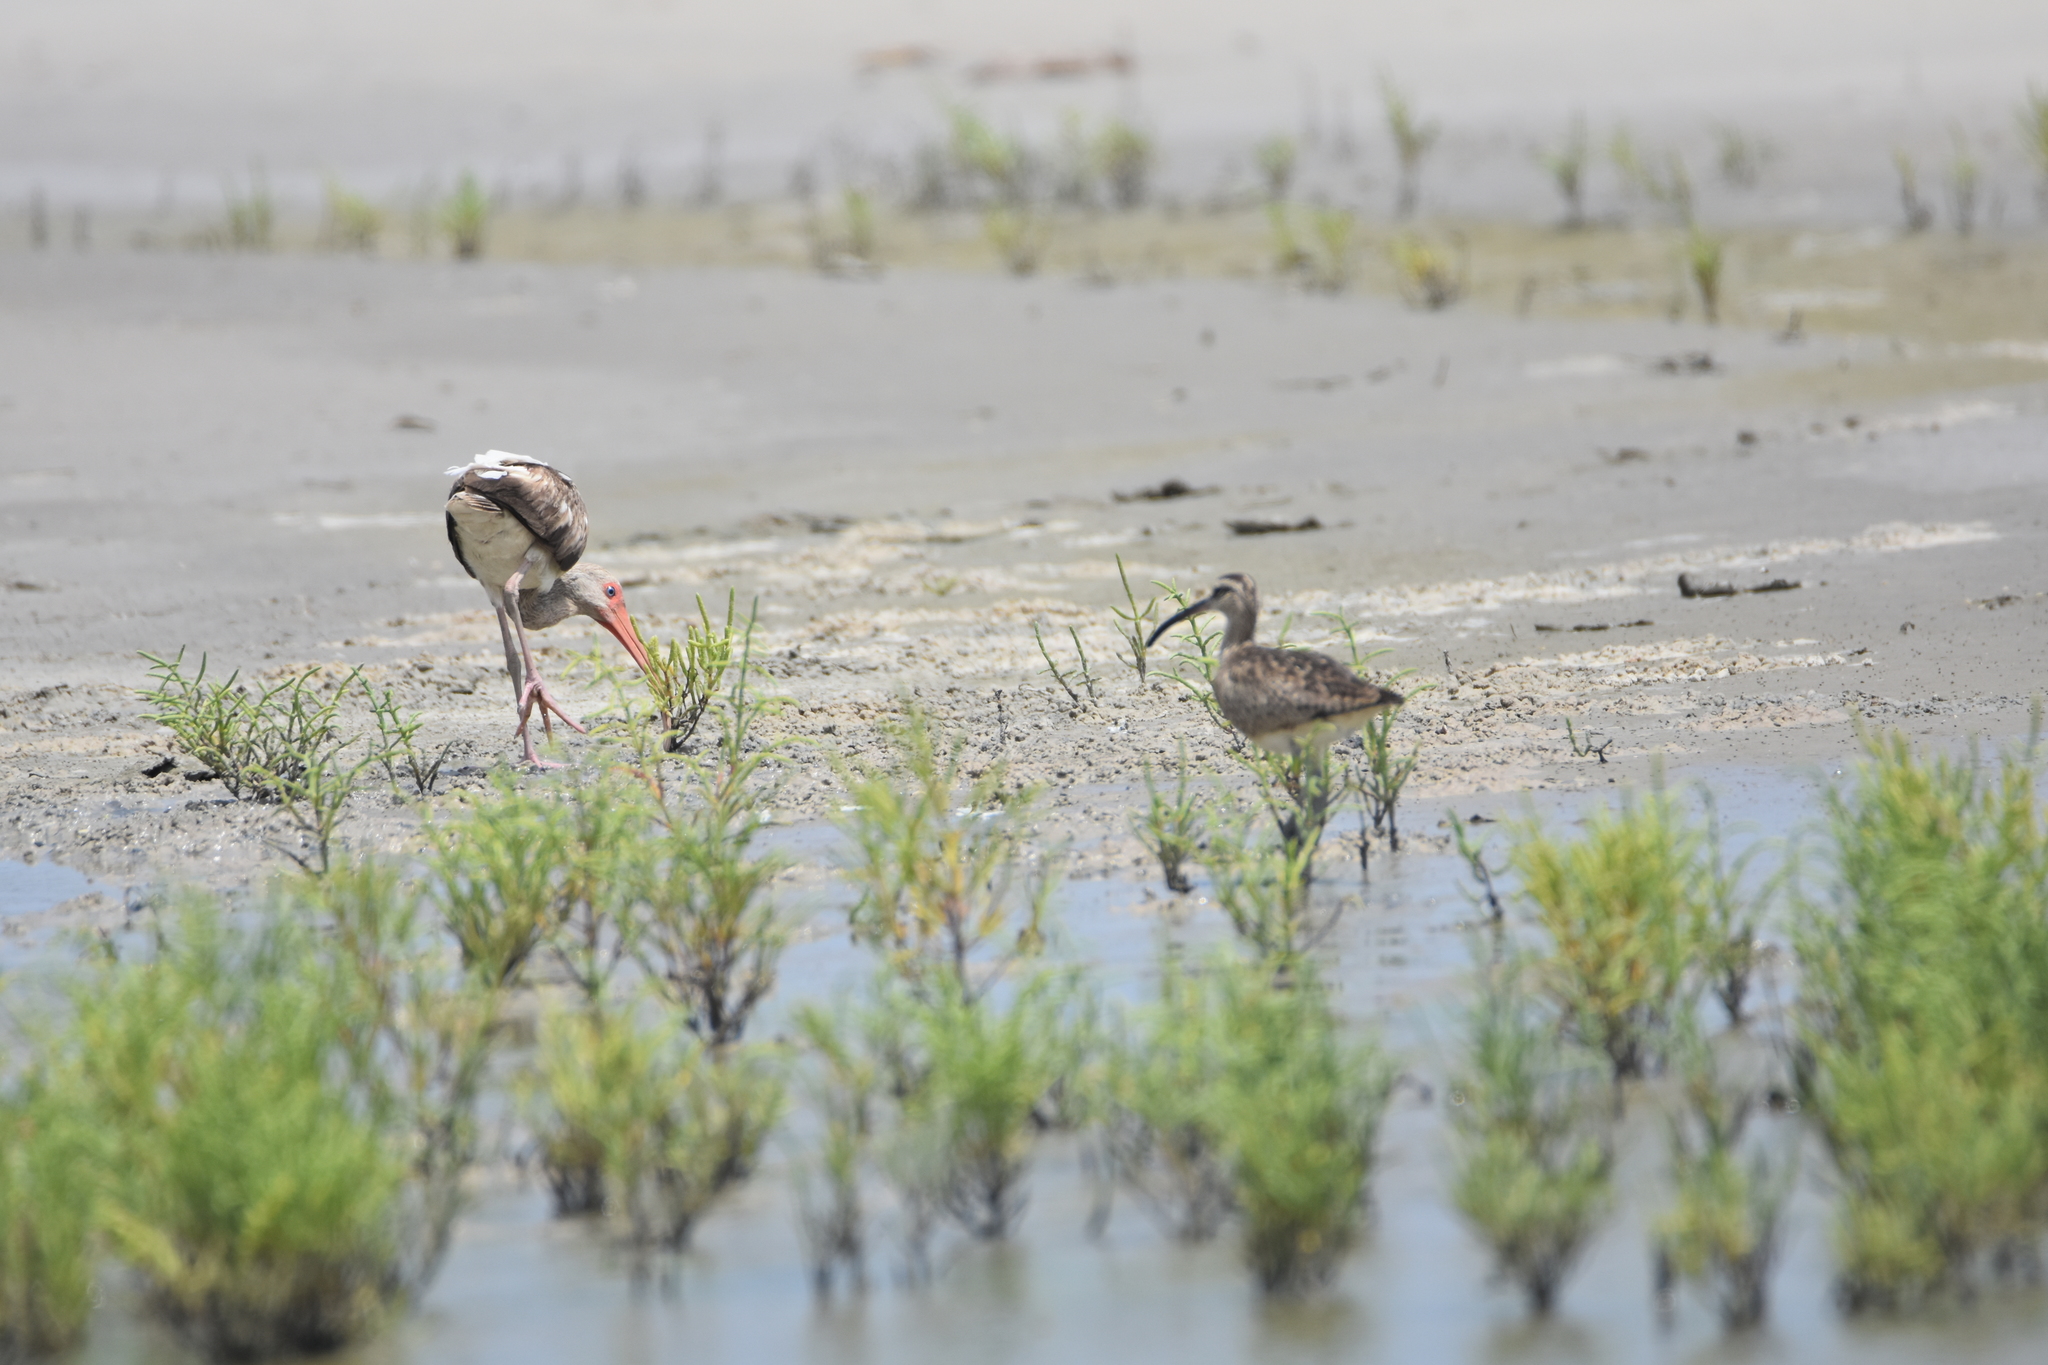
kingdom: Animalia
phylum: Chordata
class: Aves
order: Charadriiformes
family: Scolopacidae
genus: Numenius
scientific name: Numenius phaeopus
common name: Whimbrel
